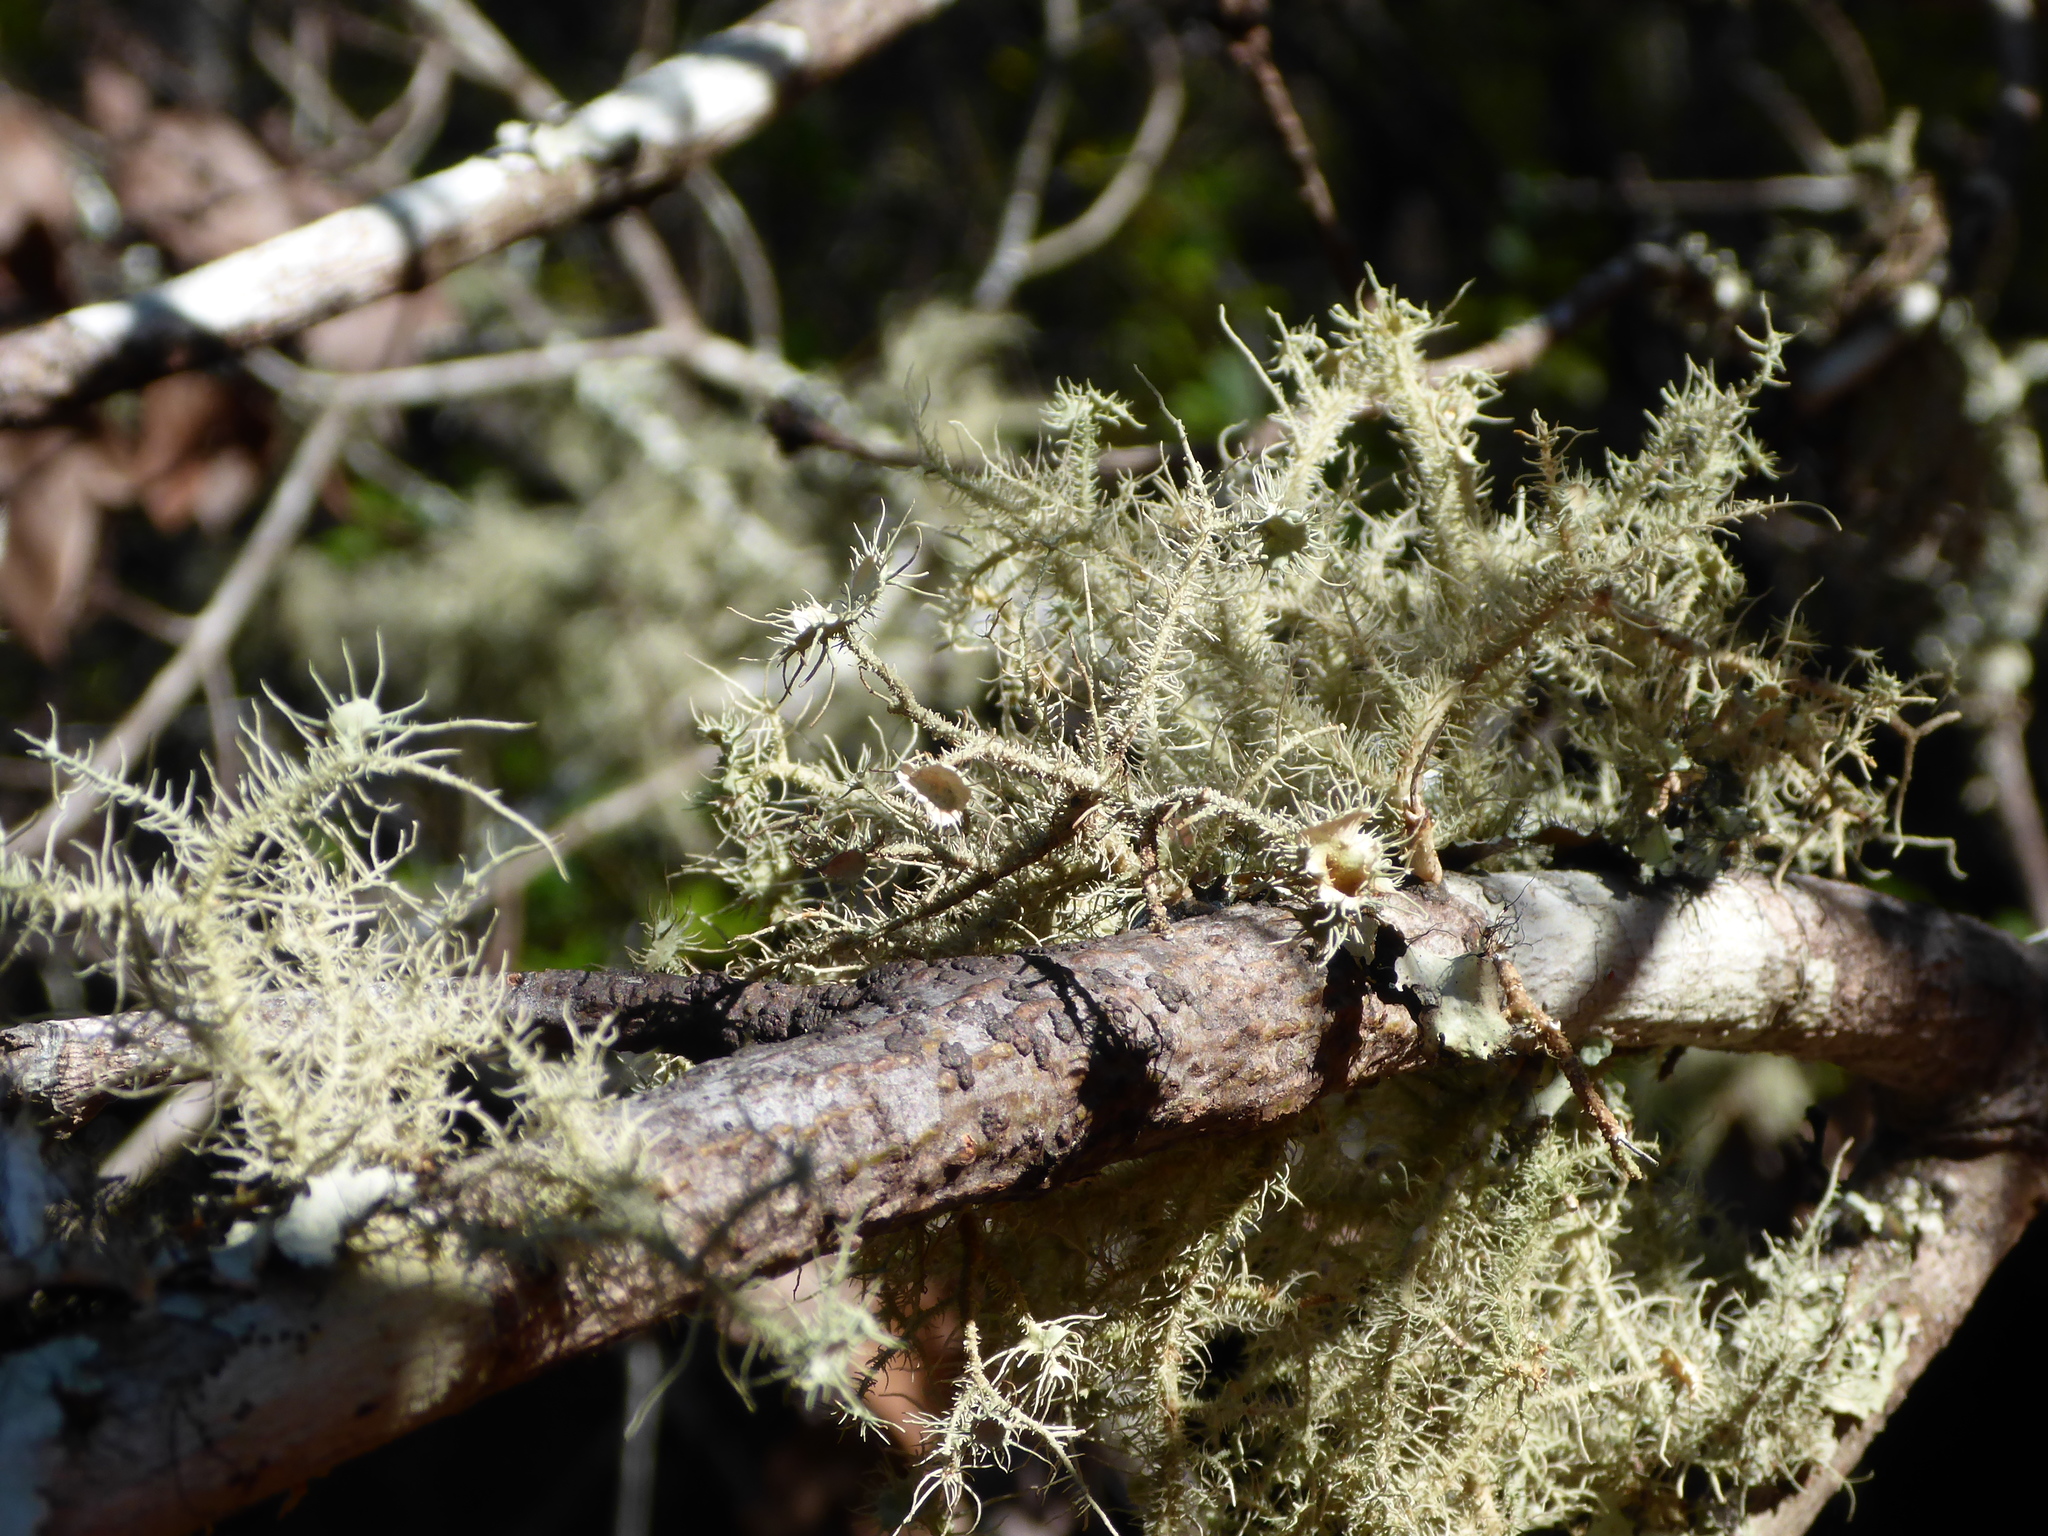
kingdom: Fungi
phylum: Ascomycota
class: Lecanoromycetes
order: Lecanorales
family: Parmeliaceae
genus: Usnea
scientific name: Usnea strigosa
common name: Bushy beard lichen
